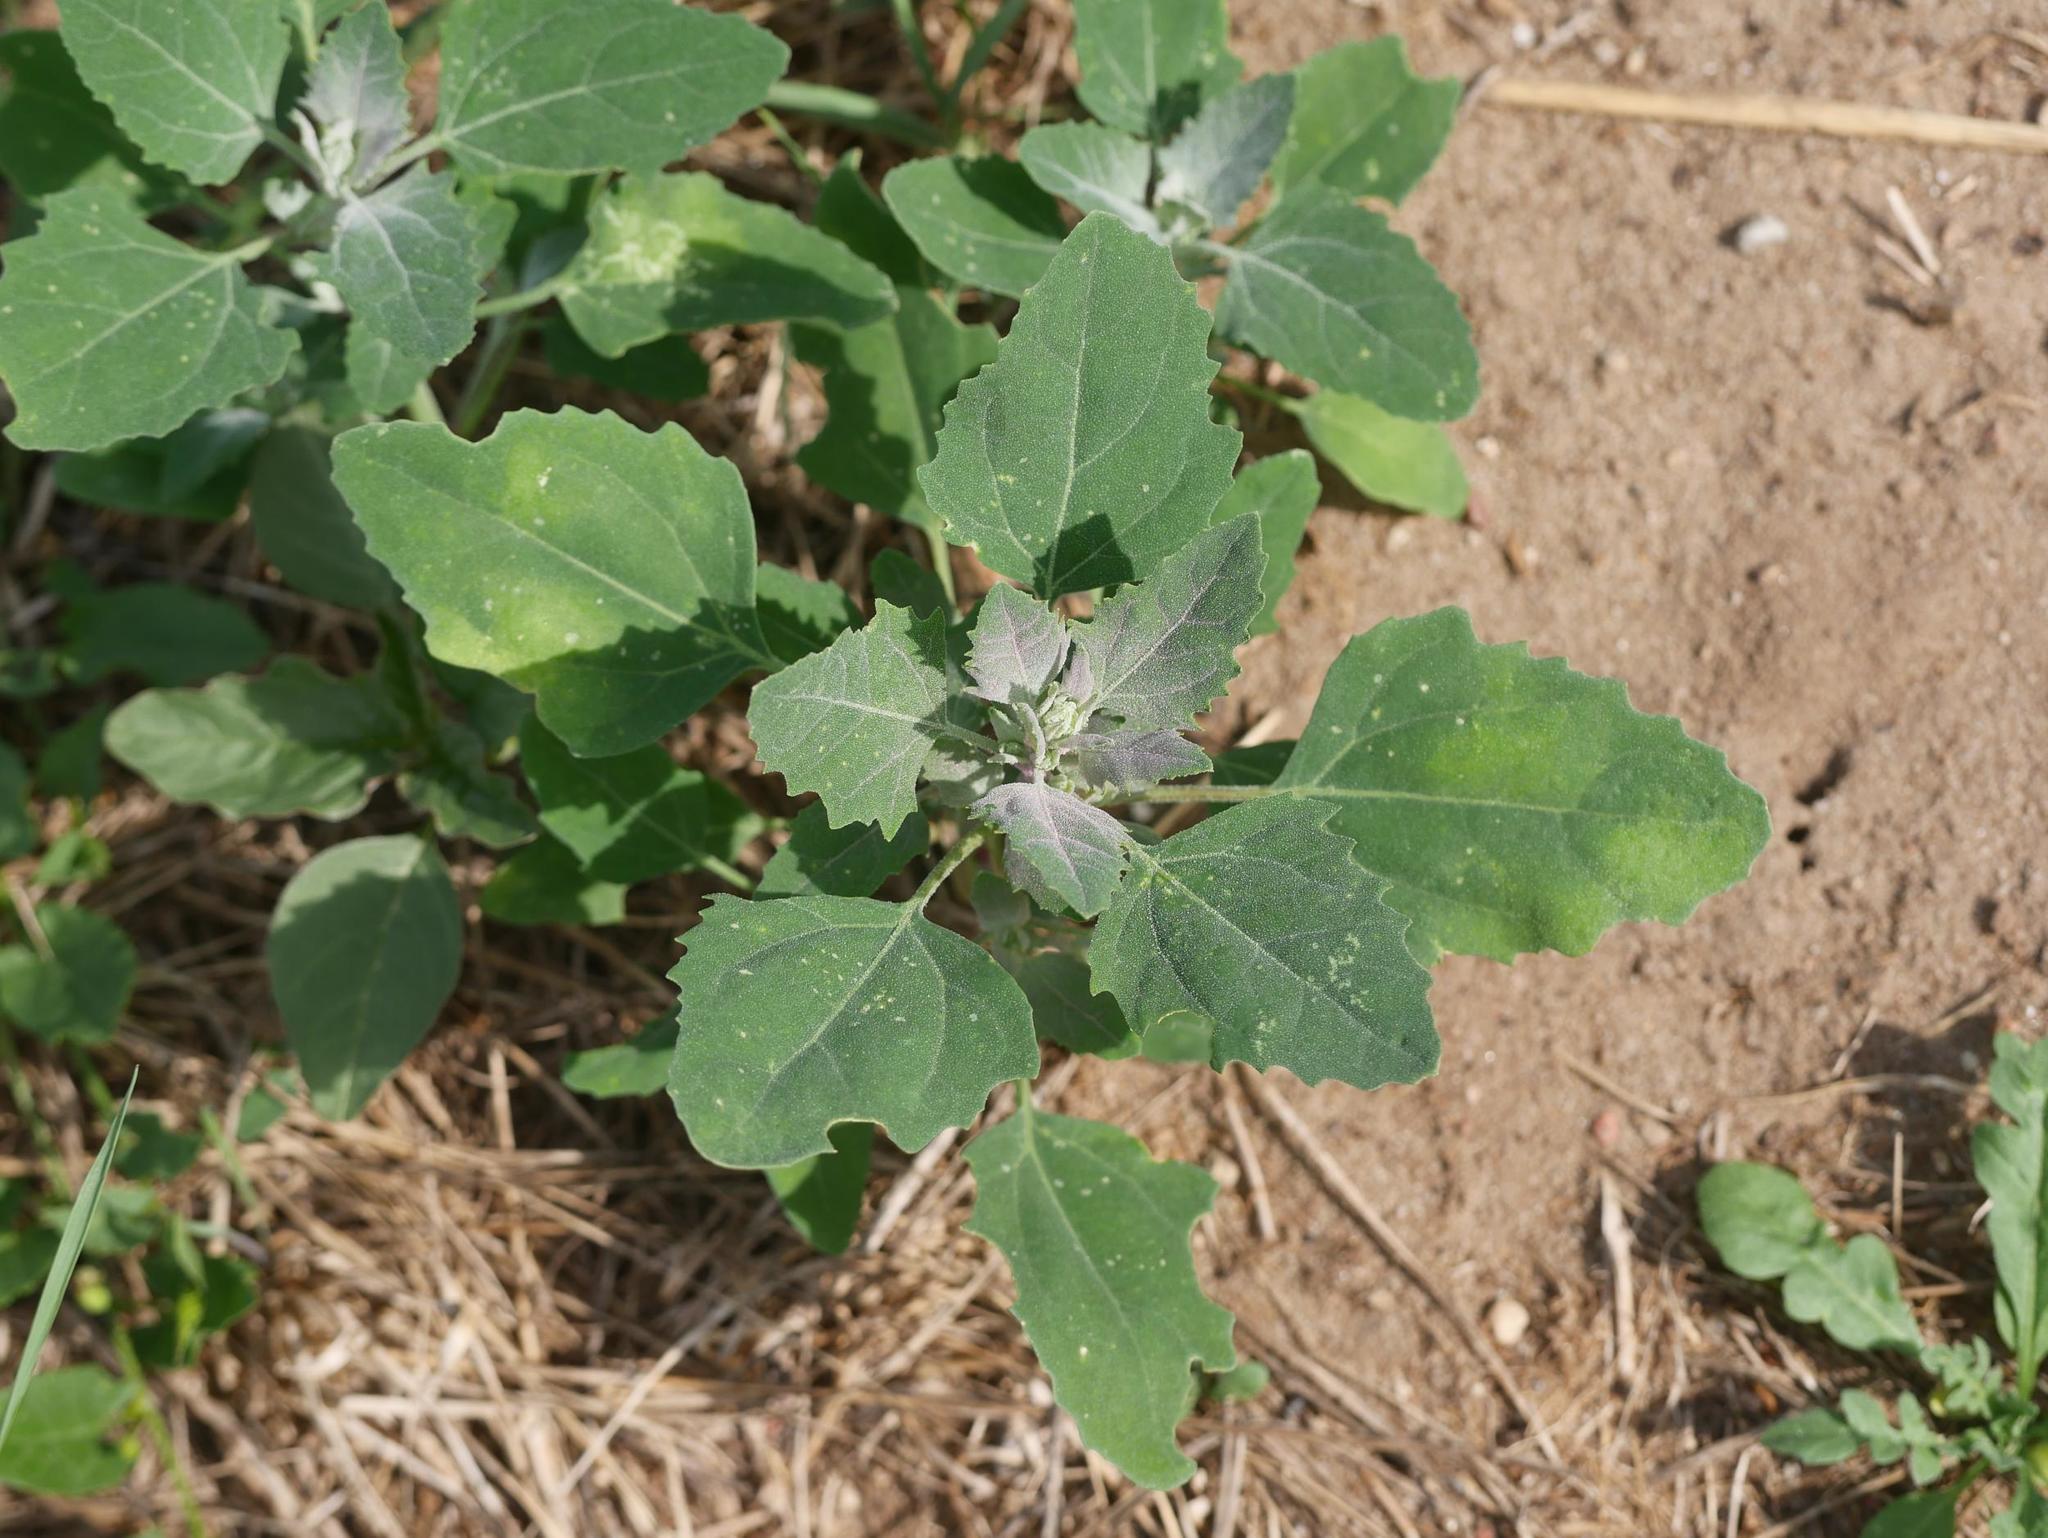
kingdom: Plantae
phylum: Tracheophyta
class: Magnoliopsida
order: Caryophyllales
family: Amaranthaceae
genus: Chenopodium
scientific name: Chenopodium album
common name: Fat-hen
